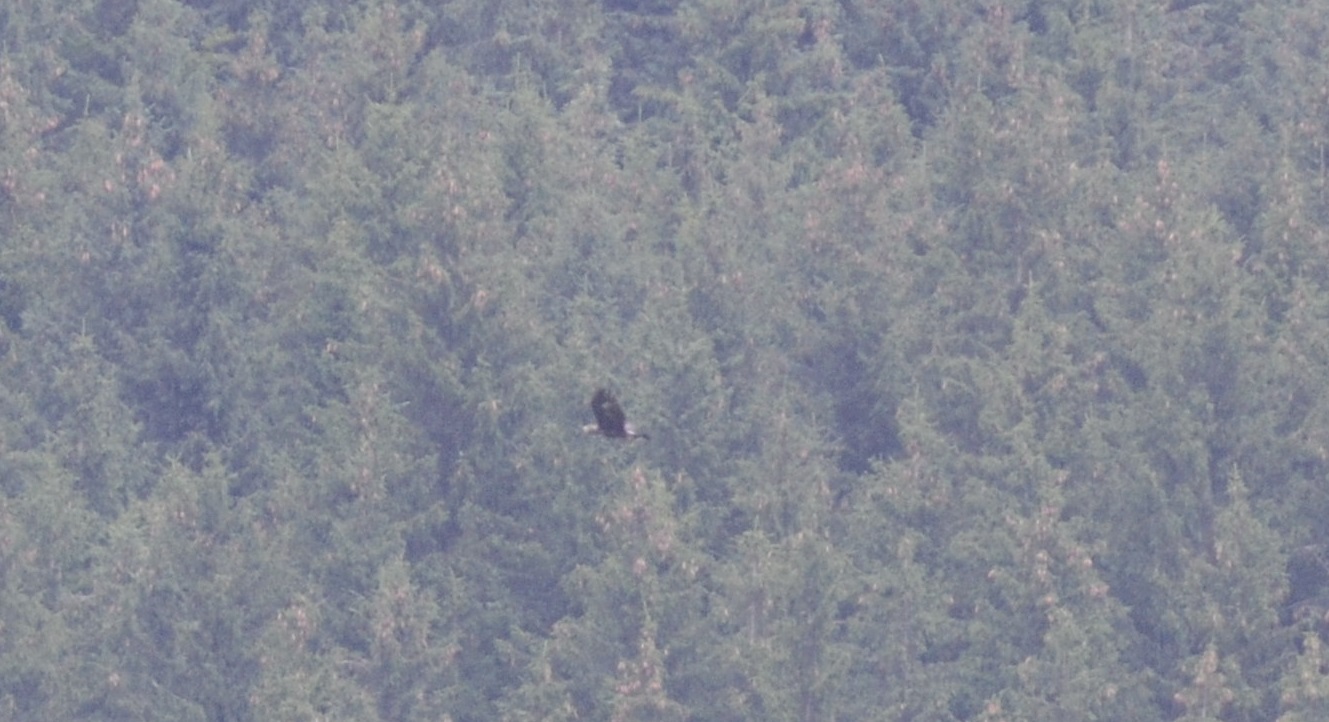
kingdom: Animalia
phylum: Chordata
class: Aves
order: Accipitriformes
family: Accipitridae
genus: Aquila
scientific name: Aquila chrysaetos
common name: Golden eagle
